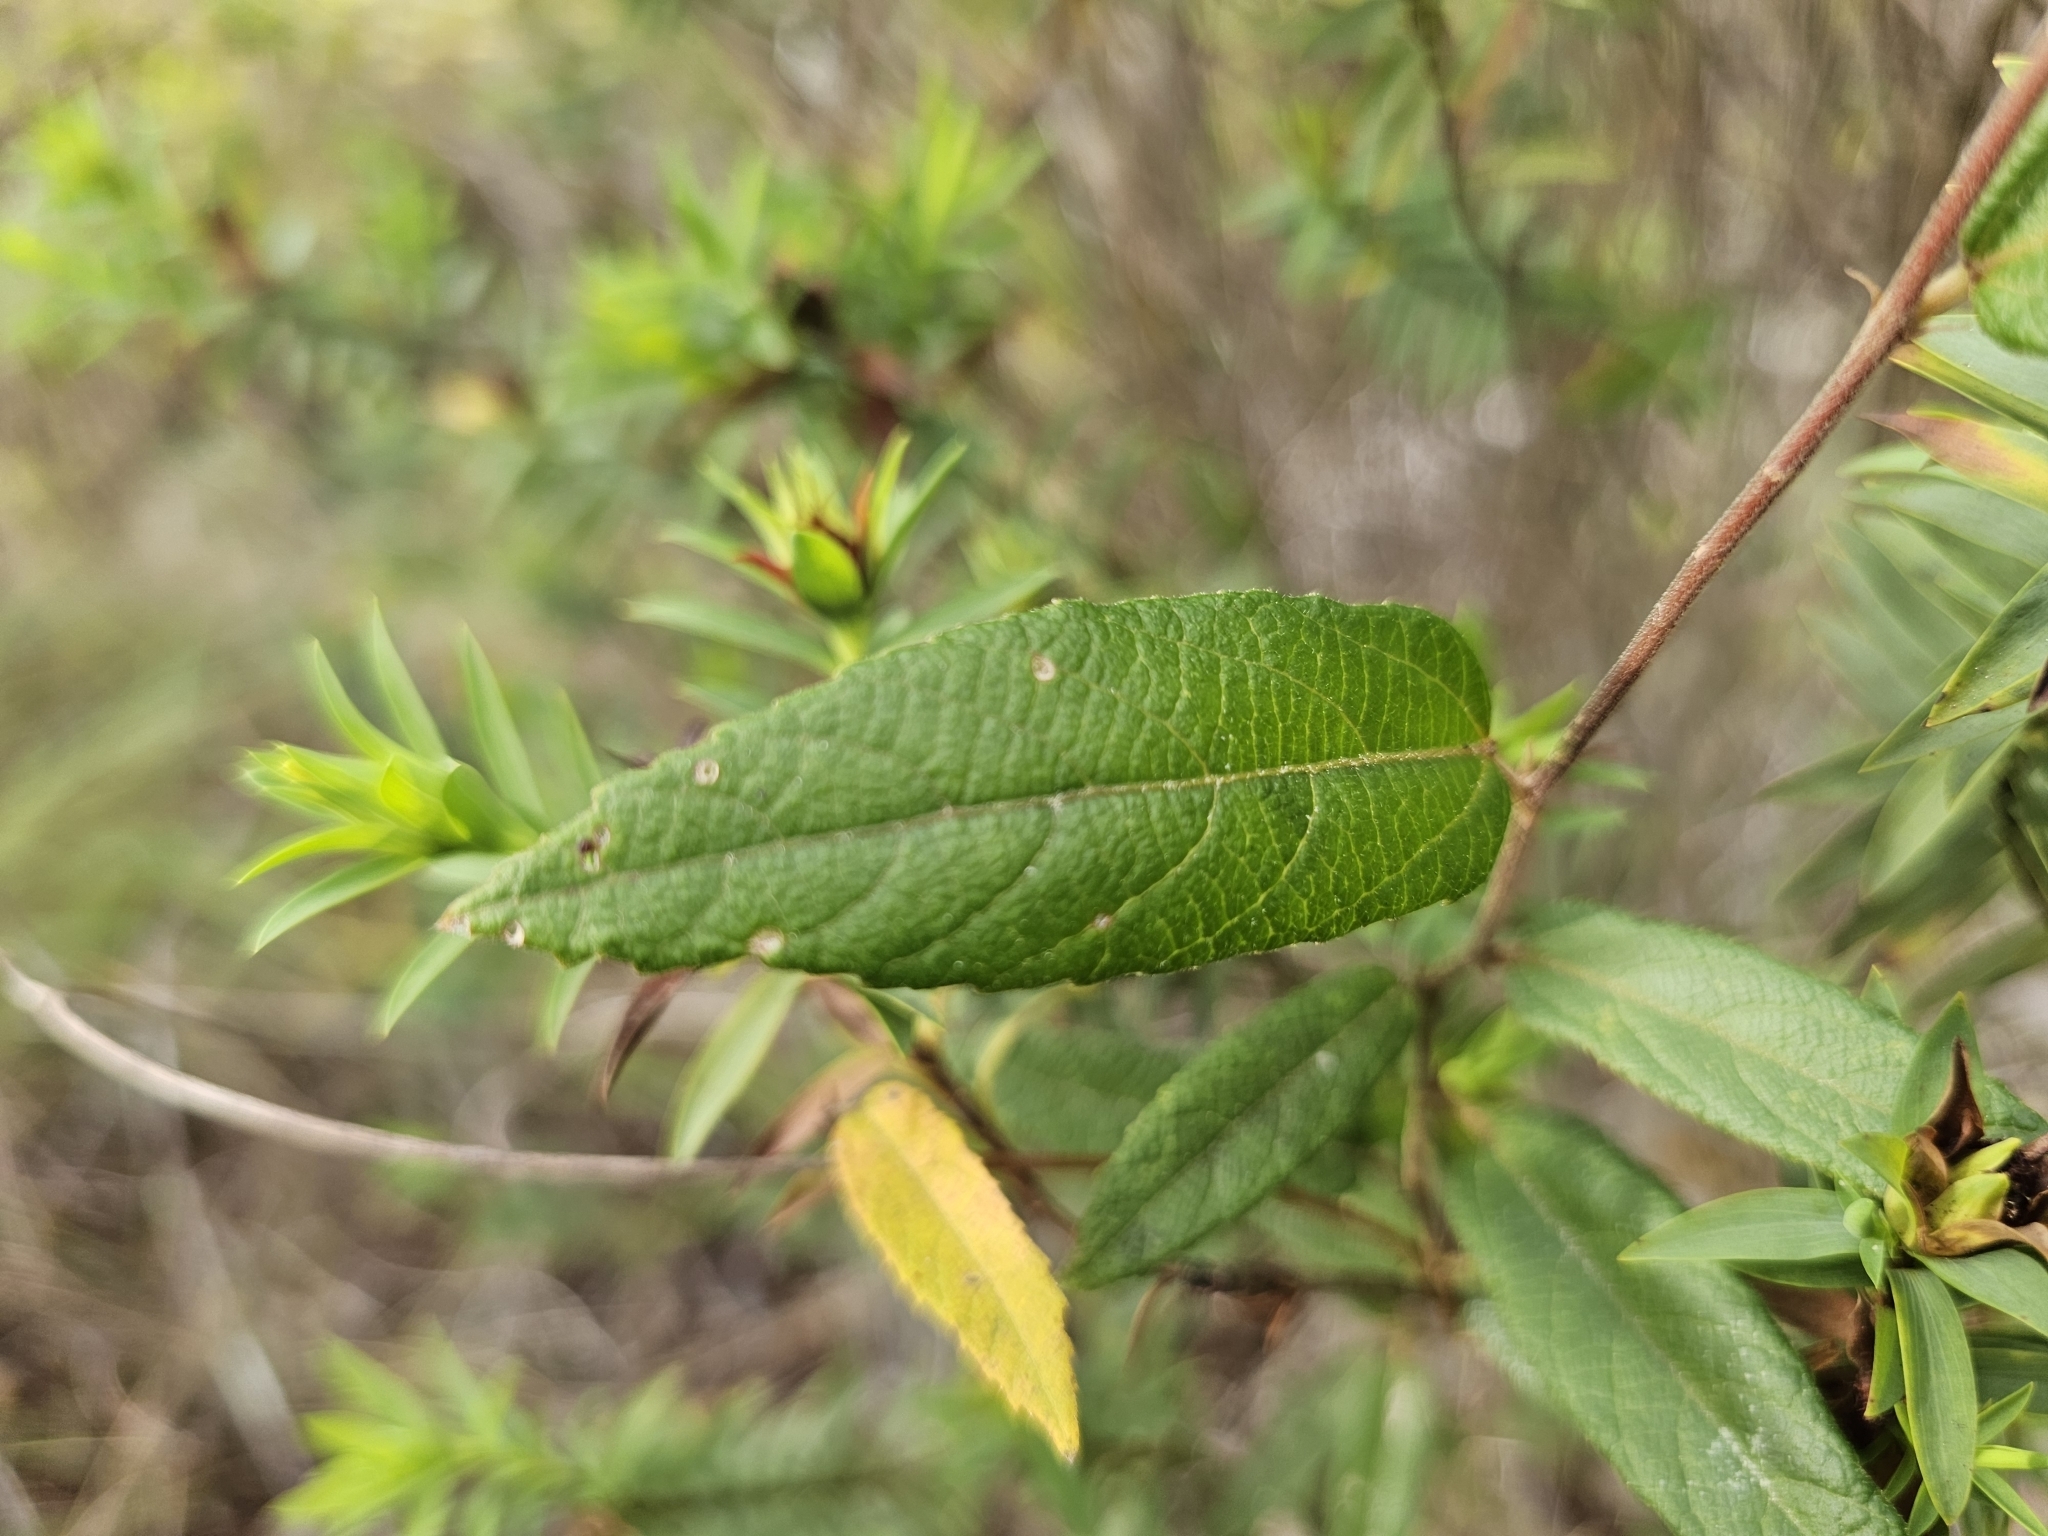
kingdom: Plantae
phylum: Tracheophyta
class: Magnoliopsida
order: Malpighiales
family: Euphorbiaceae
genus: Dalechampia
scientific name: Dalechampia schippii
